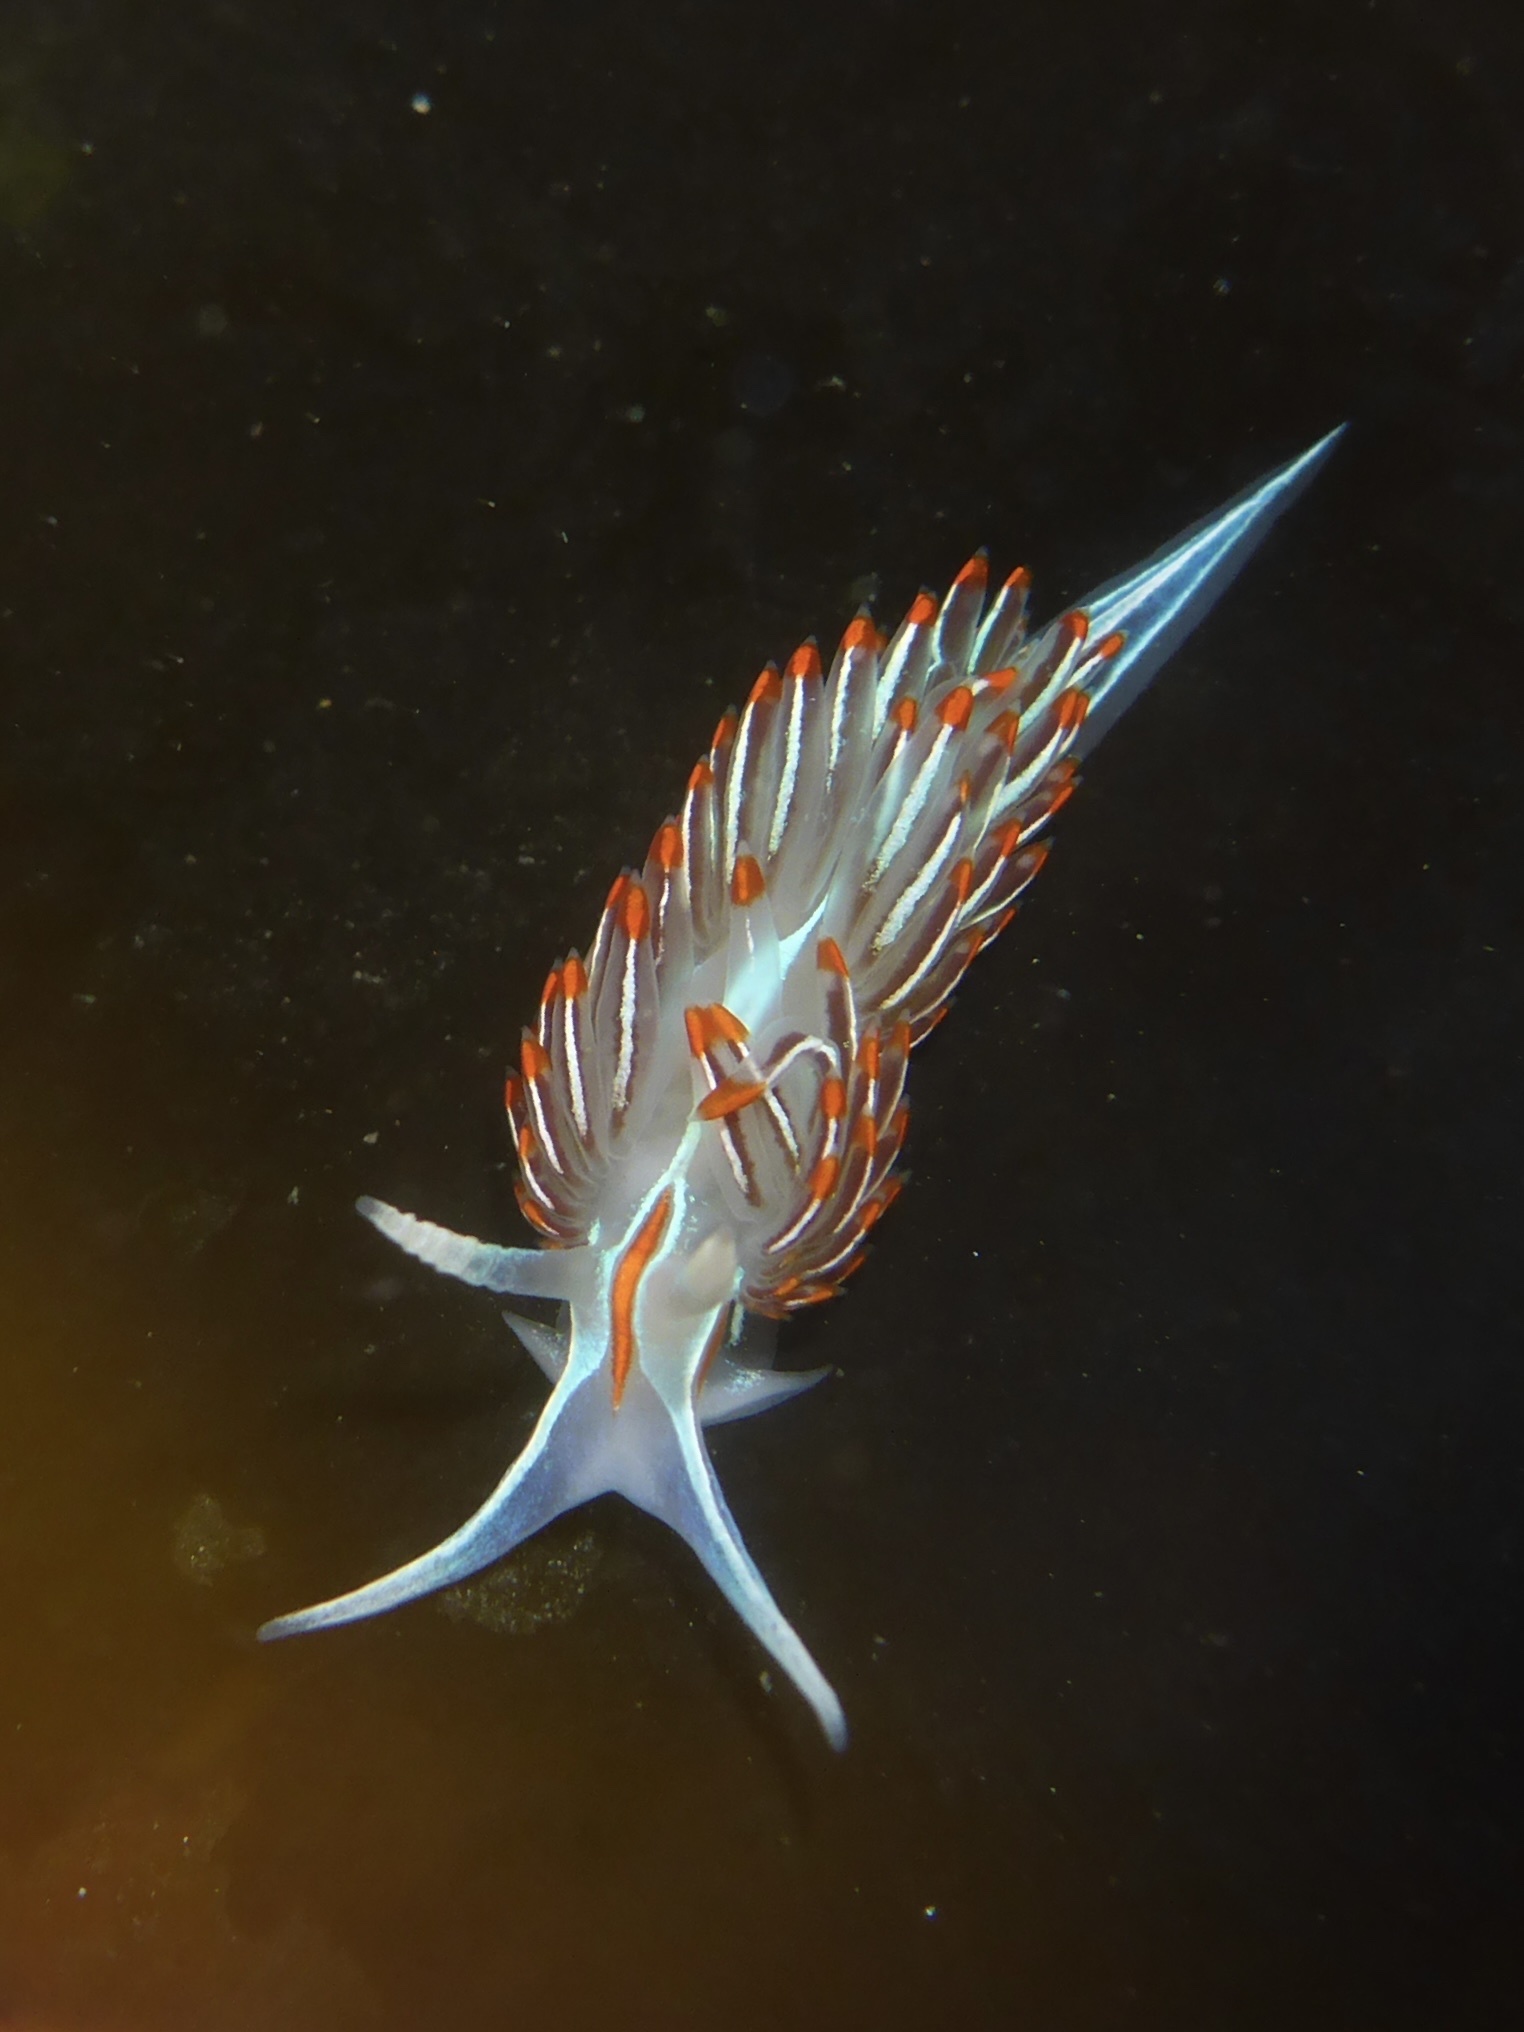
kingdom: Animalia
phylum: Mollusca
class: Gastropoda
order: Nudibranchia
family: Myrrhinidae
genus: Hermissenda
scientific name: Hermissenda crassicornis
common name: Hermissenda
